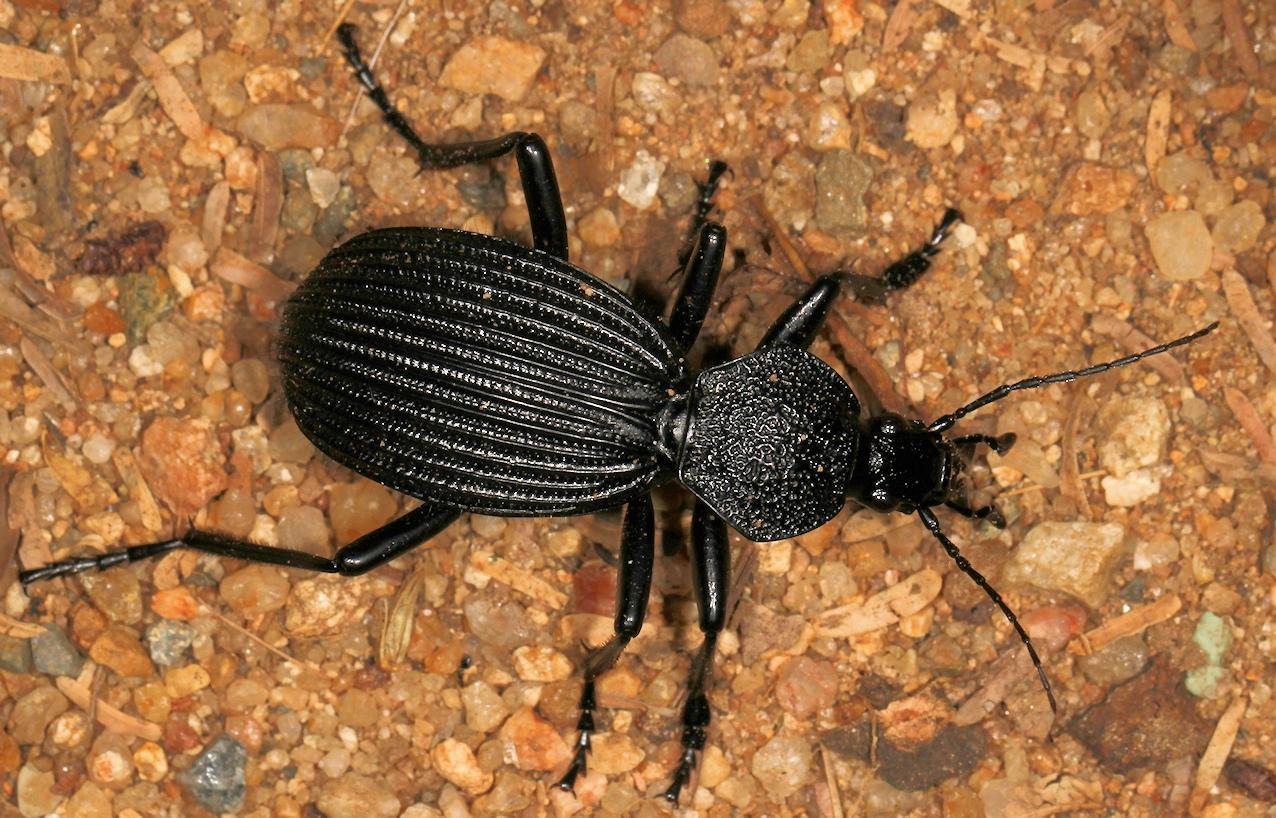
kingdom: Animalia
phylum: Arthropoda
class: Insecta
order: Coleoptera
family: Carabidae
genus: Tefflus
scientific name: Tefflus meyerlei
